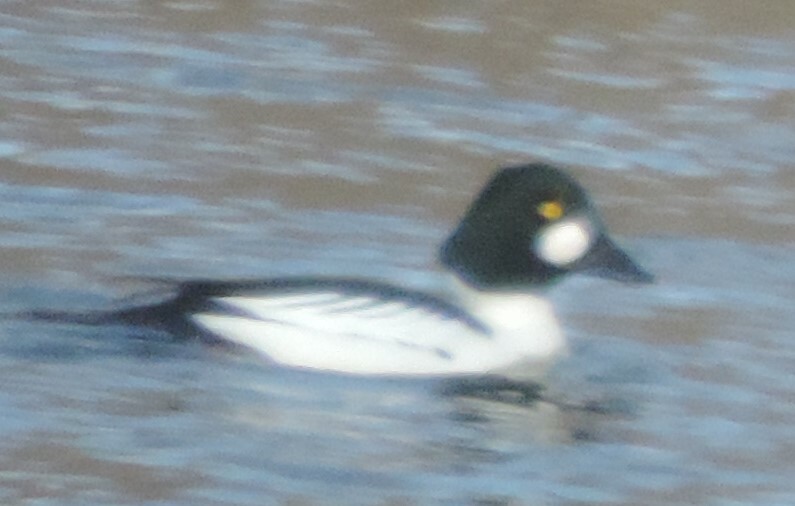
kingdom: Animalia
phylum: Chordata
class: Aves
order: Anseriformes
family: Anatidae
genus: Bucephala
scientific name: Bucephala clangula
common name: Common goldeneye
